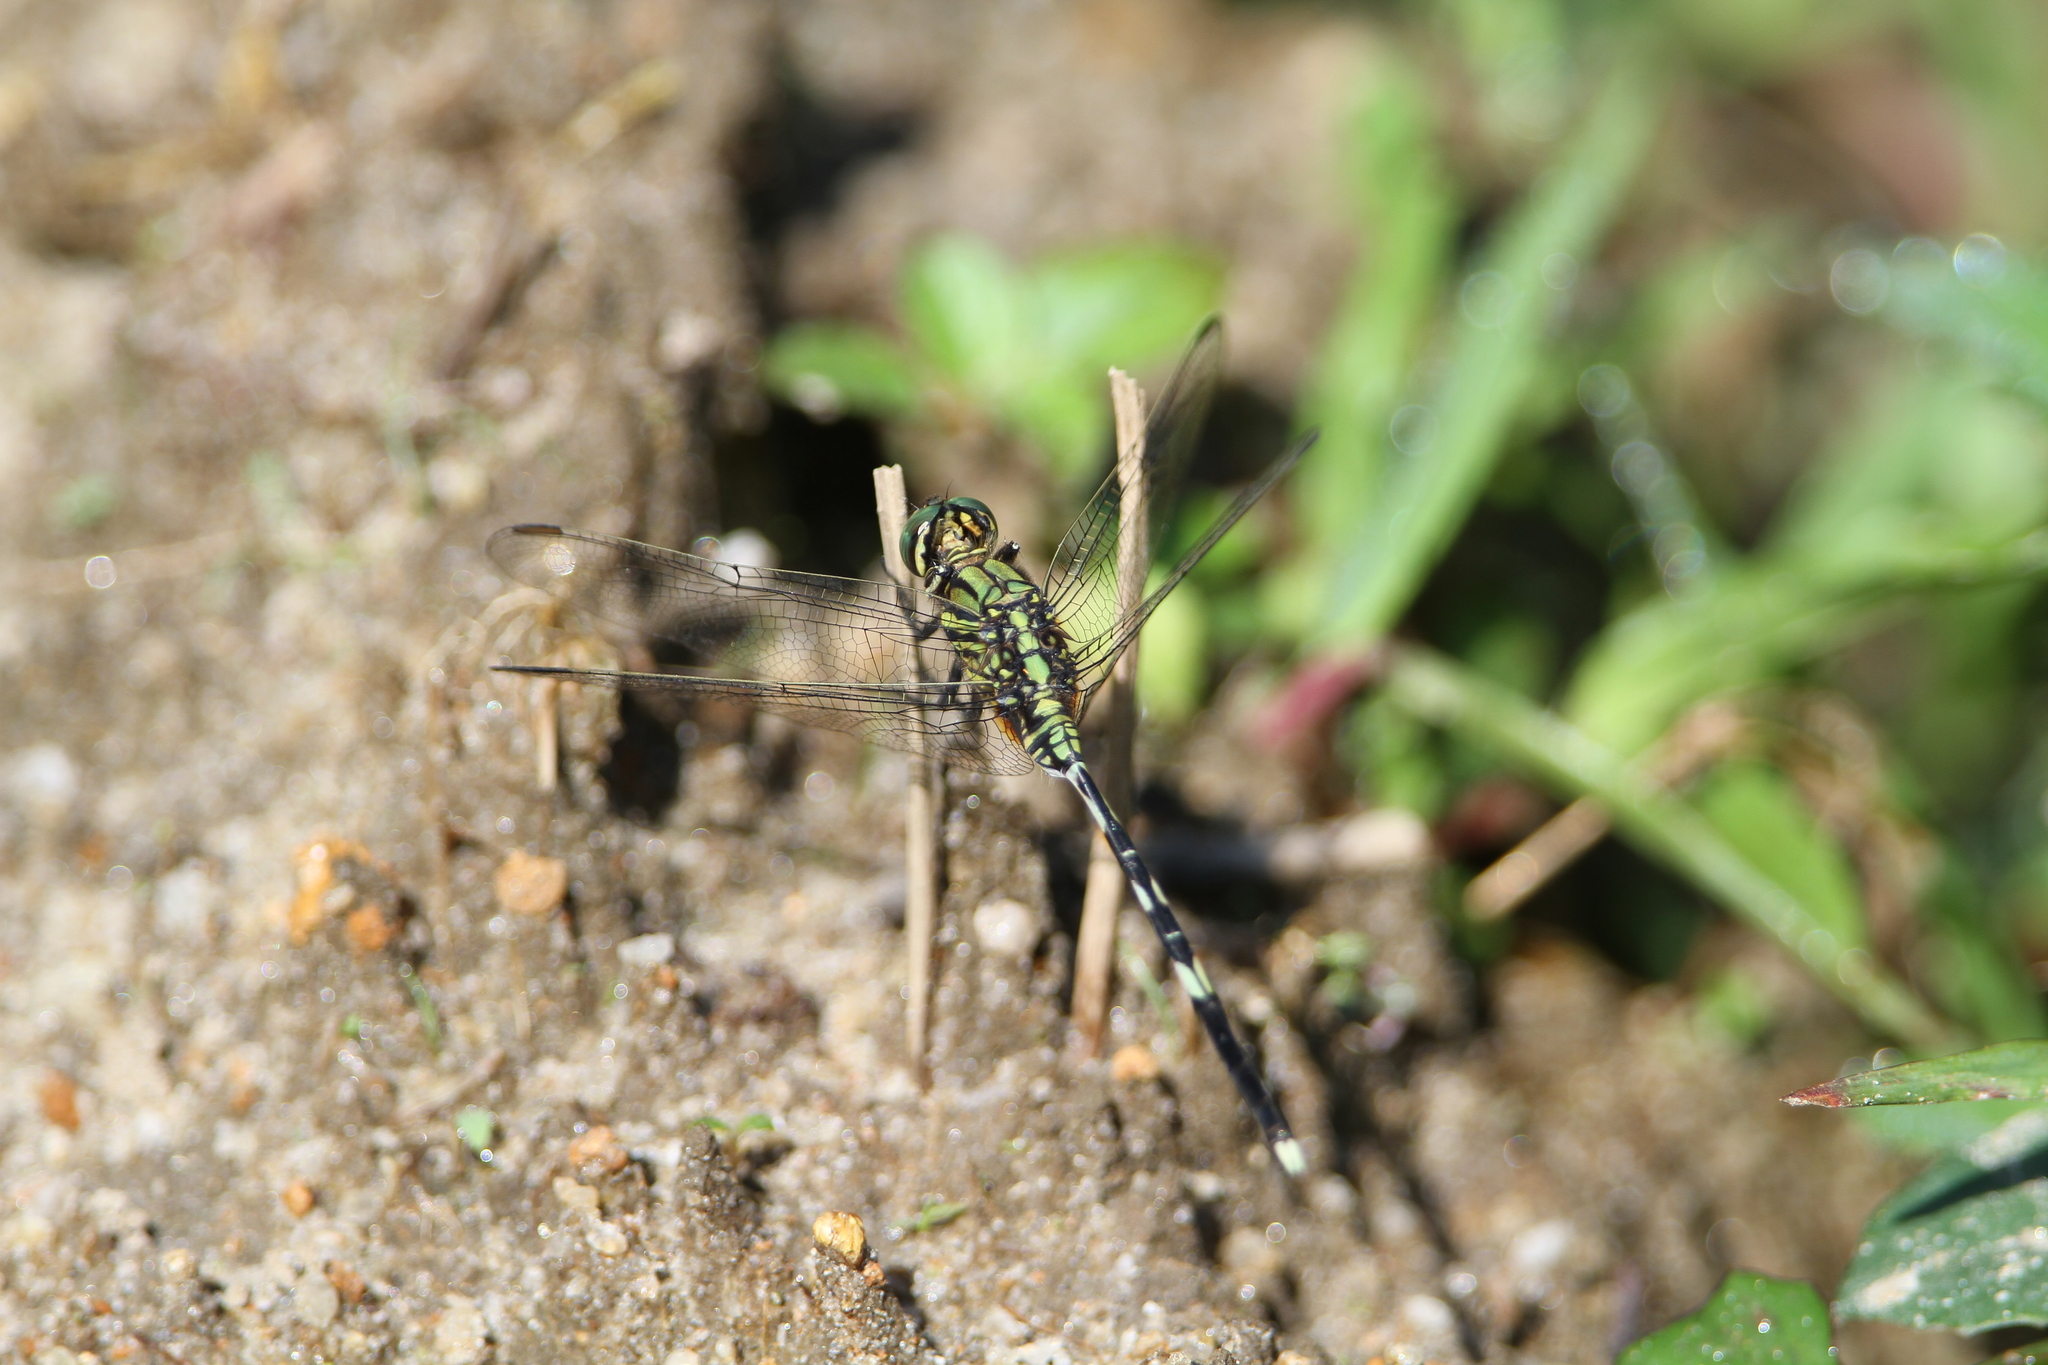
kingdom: Animalia
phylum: Arthropoda
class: Insecta
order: Odonata
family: Libellulidae
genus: Orthetrum
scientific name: Orthetrum sabina
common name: Slender skimmer
